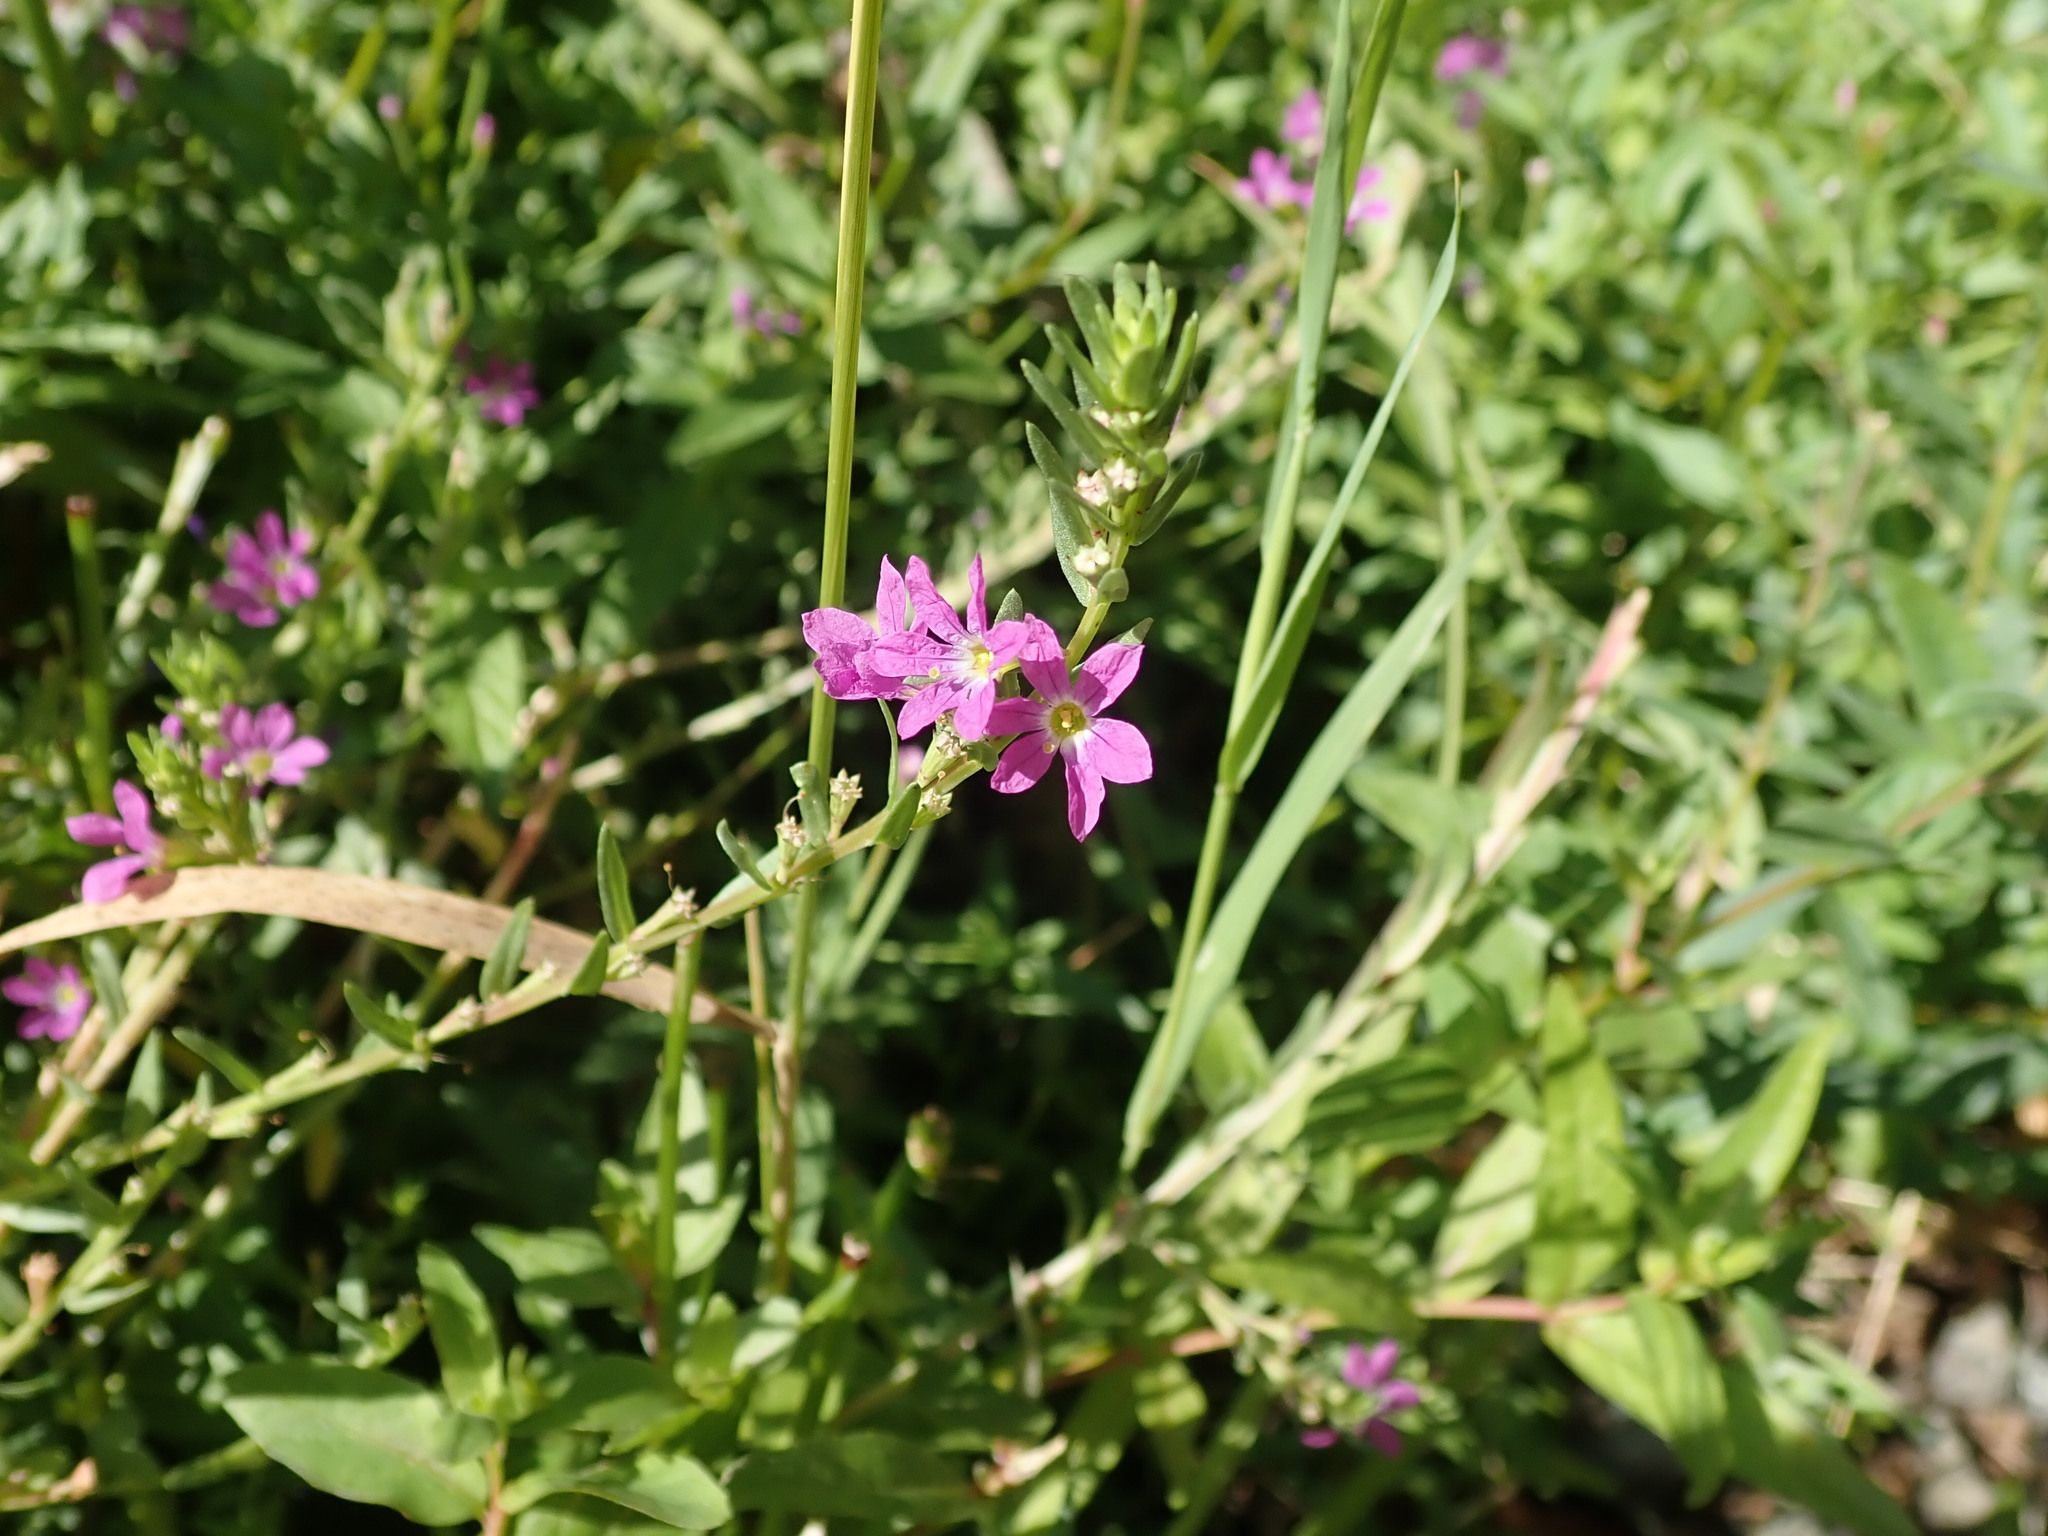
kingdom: Plantae
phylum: Tracheophyta
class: Magnoliopsida
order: Myrtales
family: Lythraceae
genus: Lythrum
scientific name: Lythrum junceum
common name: False grass-poly
